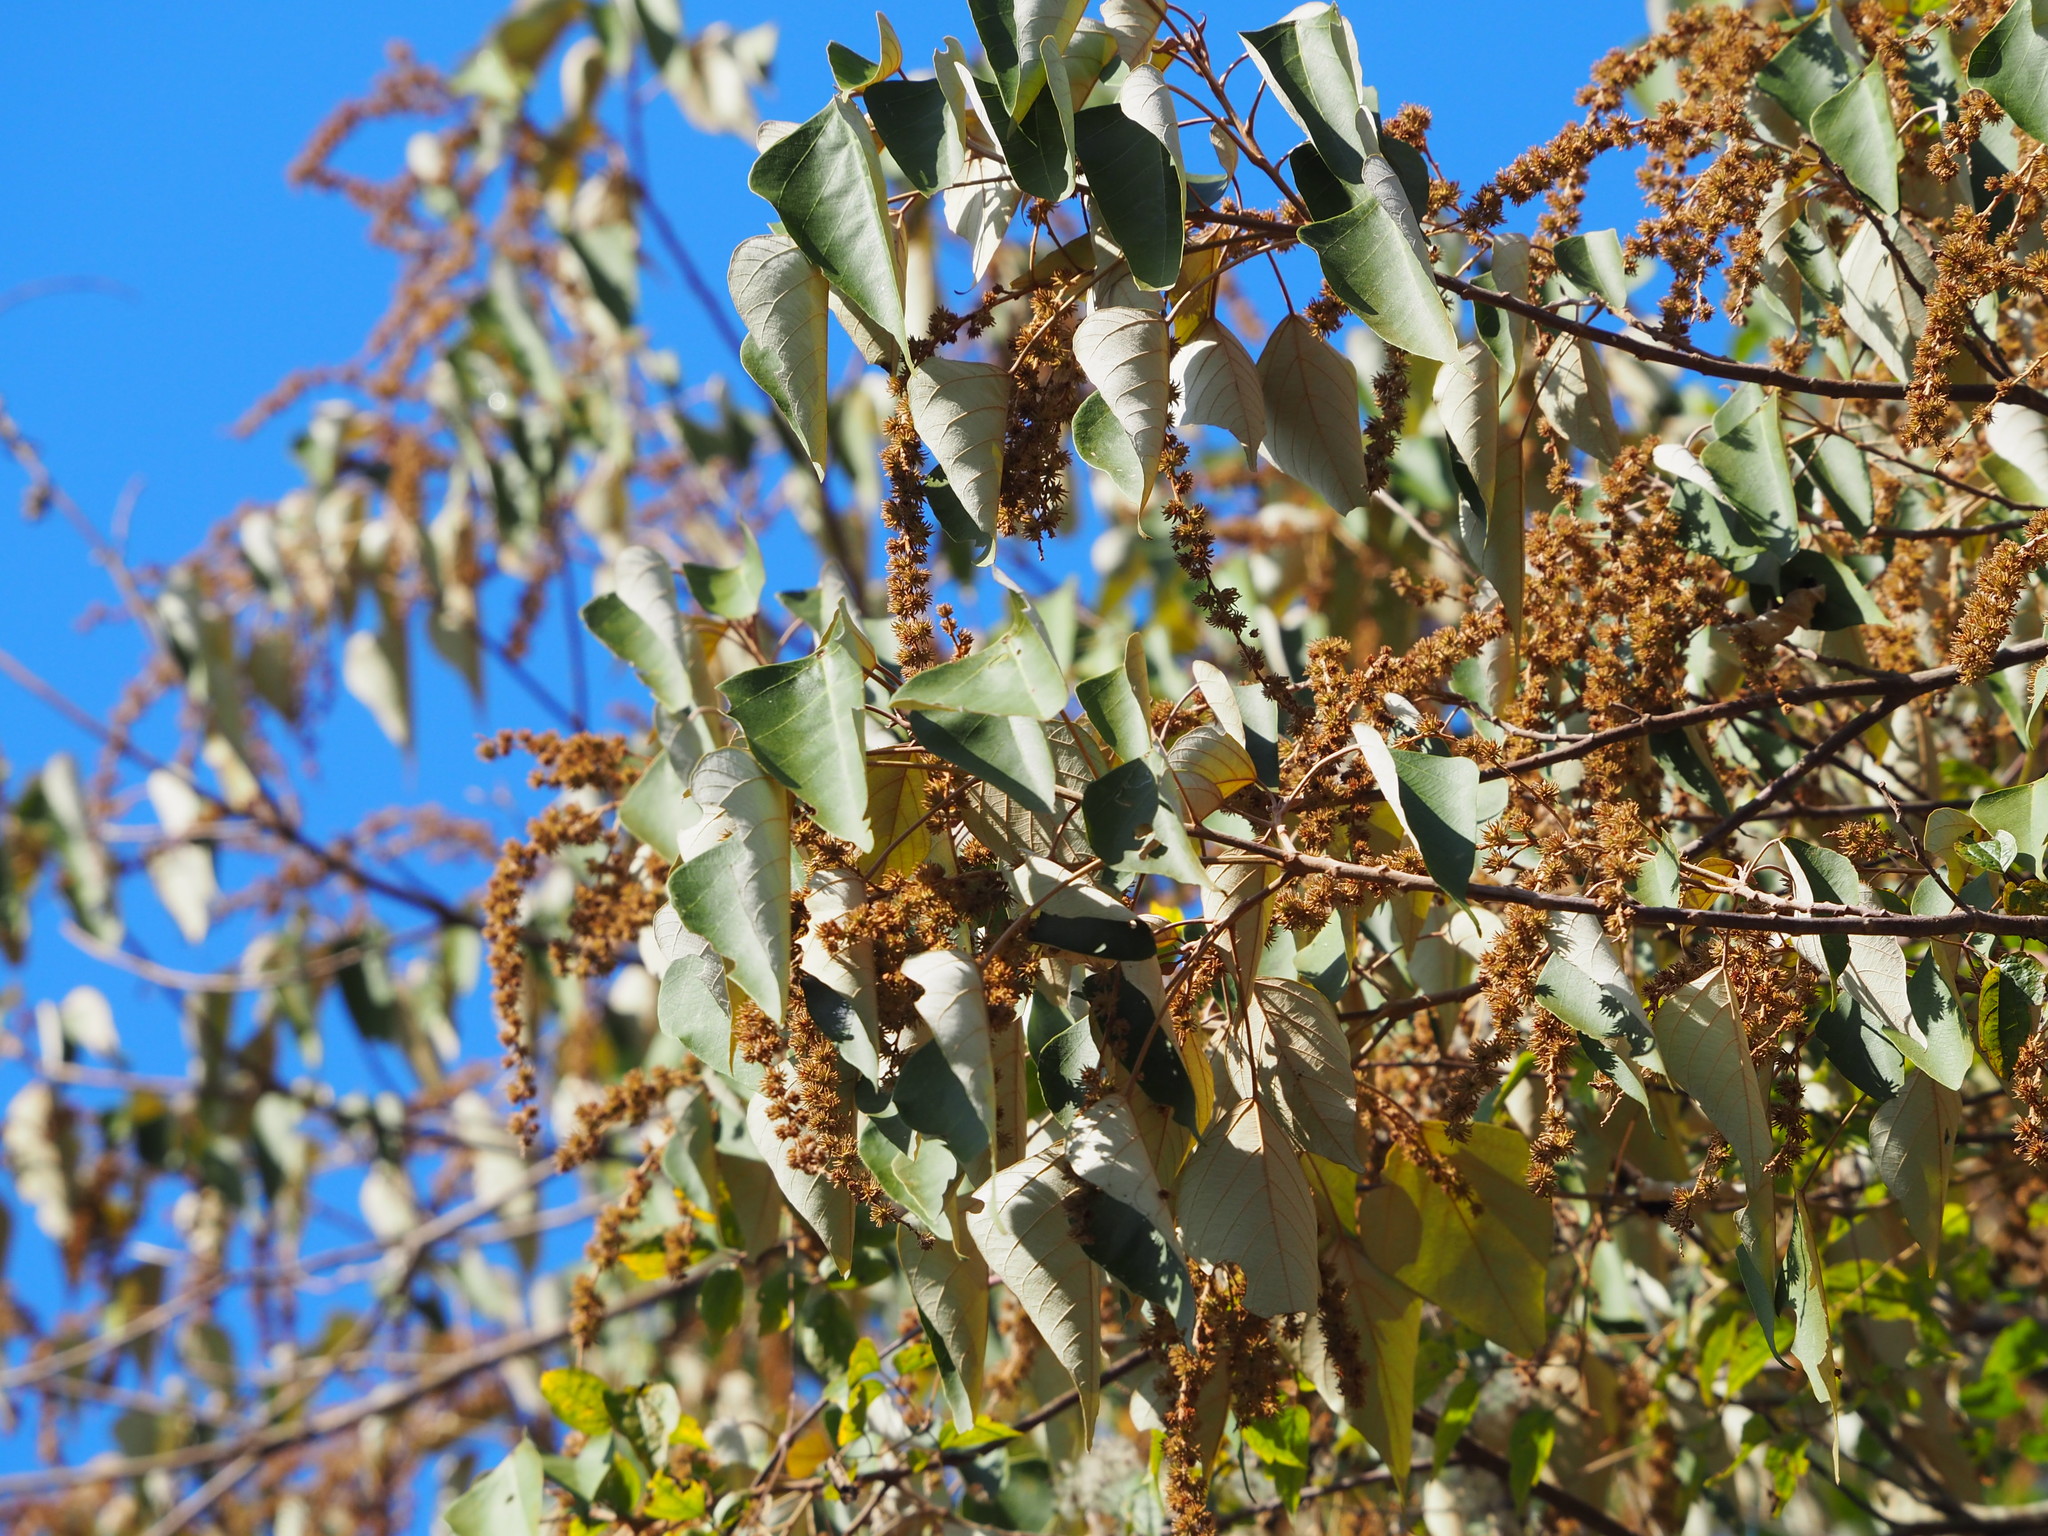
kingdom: Plantae
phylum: Tracheophyta
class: Magnoliopsida
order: Malpighiales
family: Euphorbiaceae
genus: Mallotus
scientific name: Mallotus paniculatus
